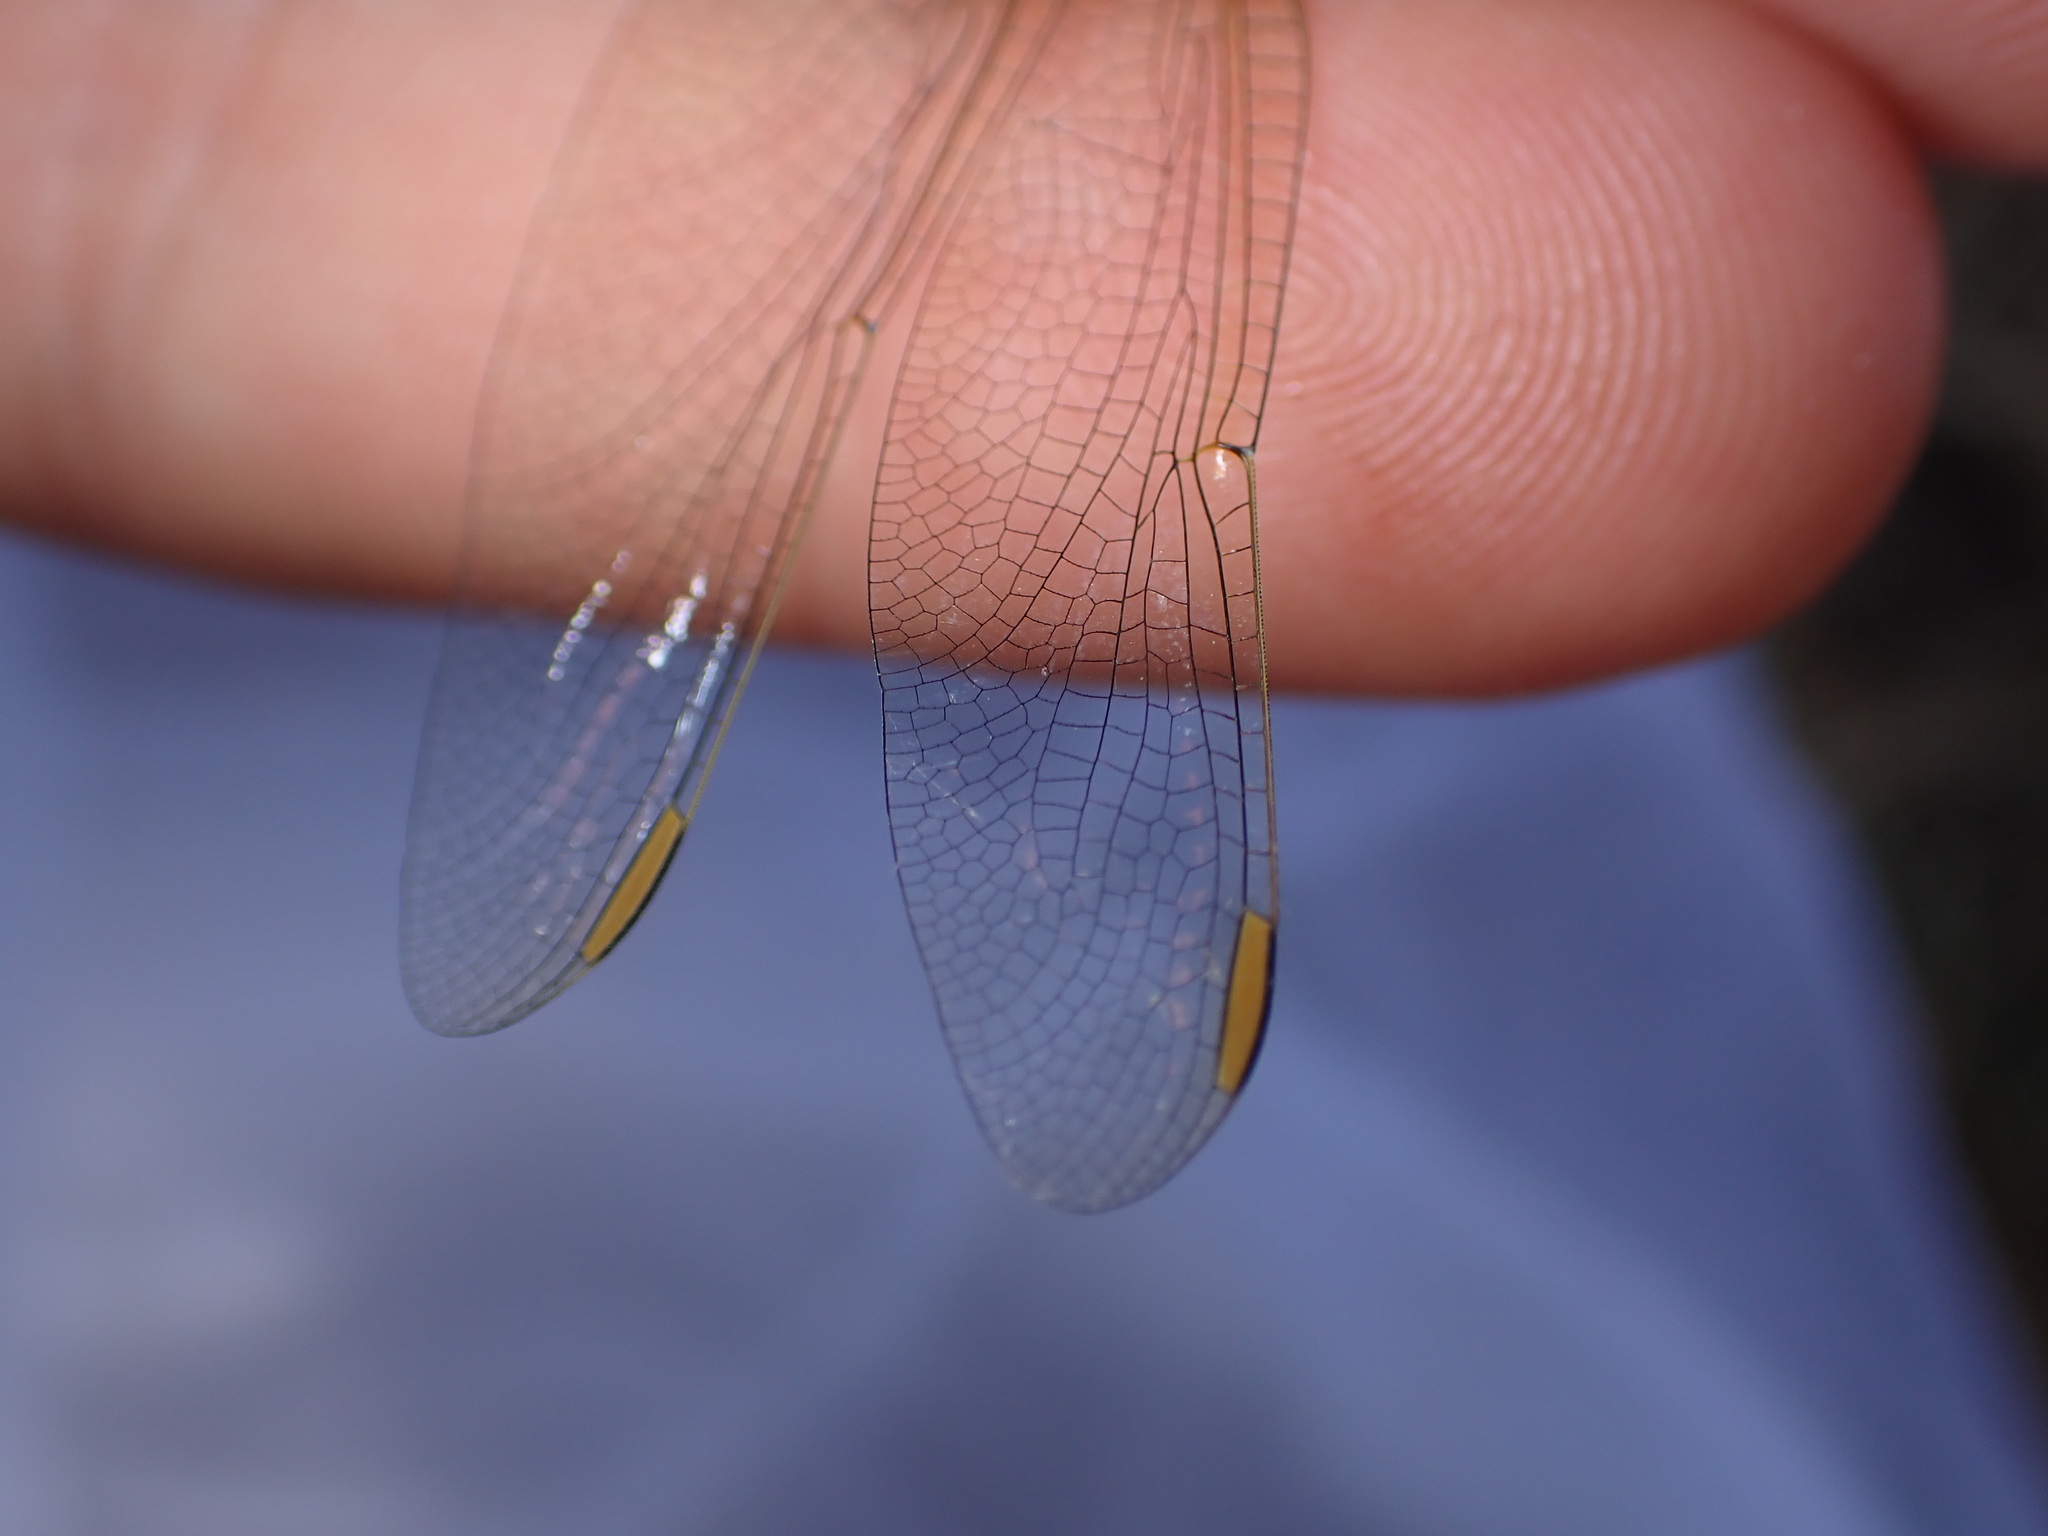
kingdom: Animalia
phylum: Arthropoda
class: Insecta
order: Odonata
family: Libellulidae
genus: Orthetrum
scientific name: Orthetrum coerulescens
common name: Keeled skimmer
